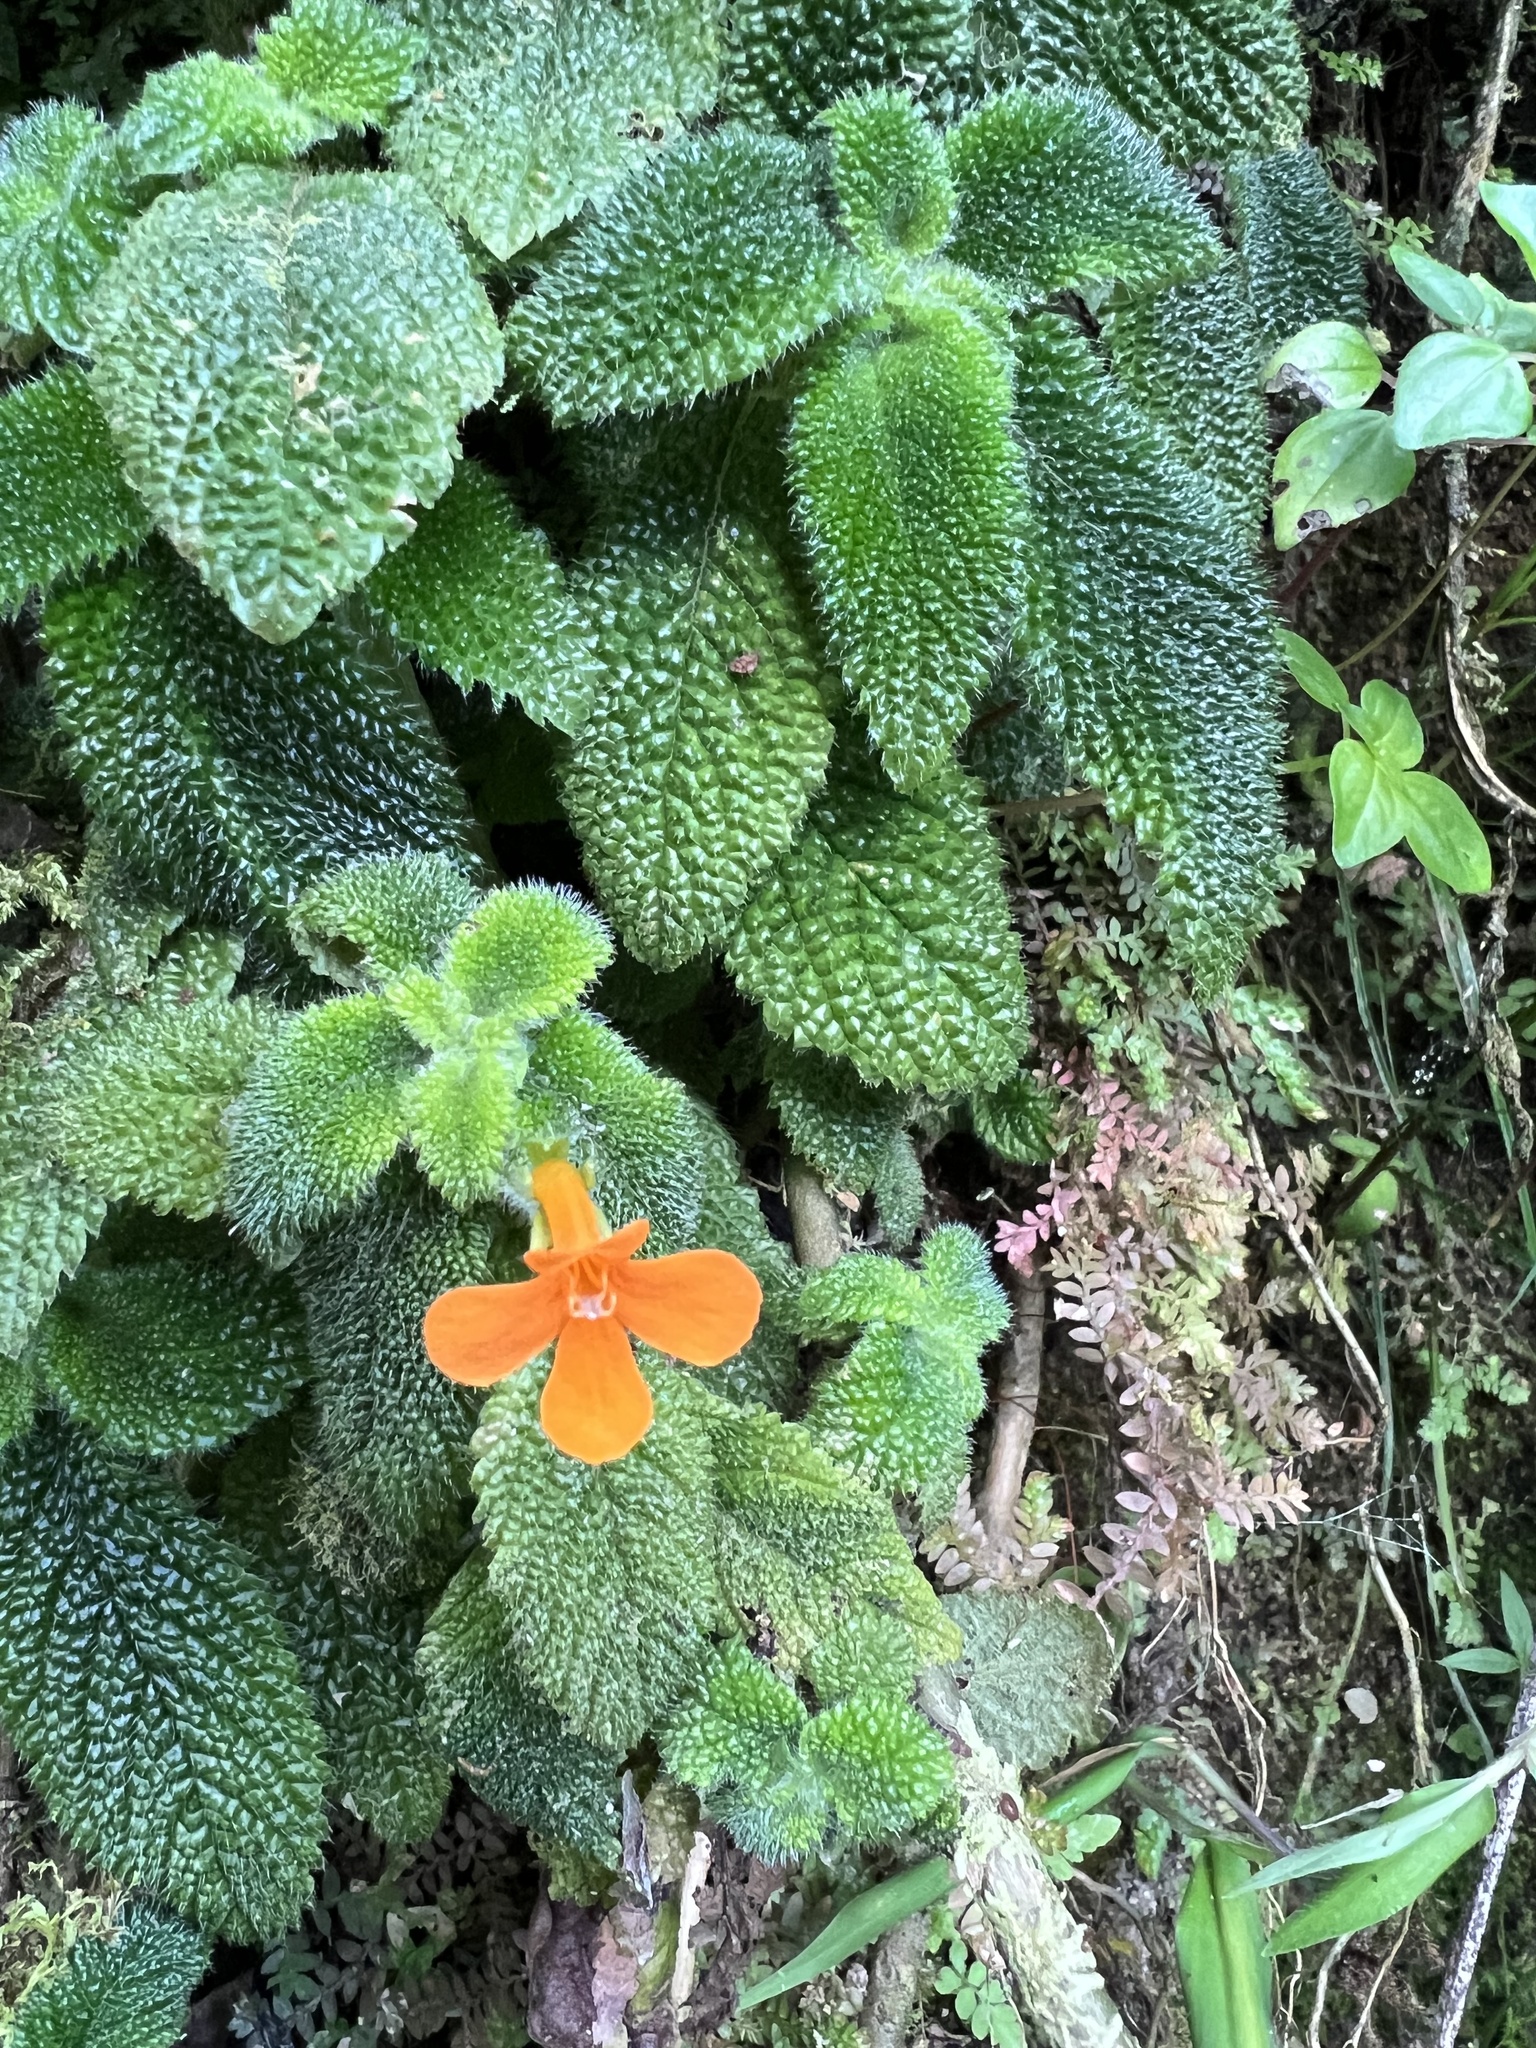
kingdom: Plantae
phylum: Tracheophyta
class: Magnoliopsida
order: Lamiales
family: Gesneriaceae
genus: Reldia
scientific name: Reldia grandiflora
